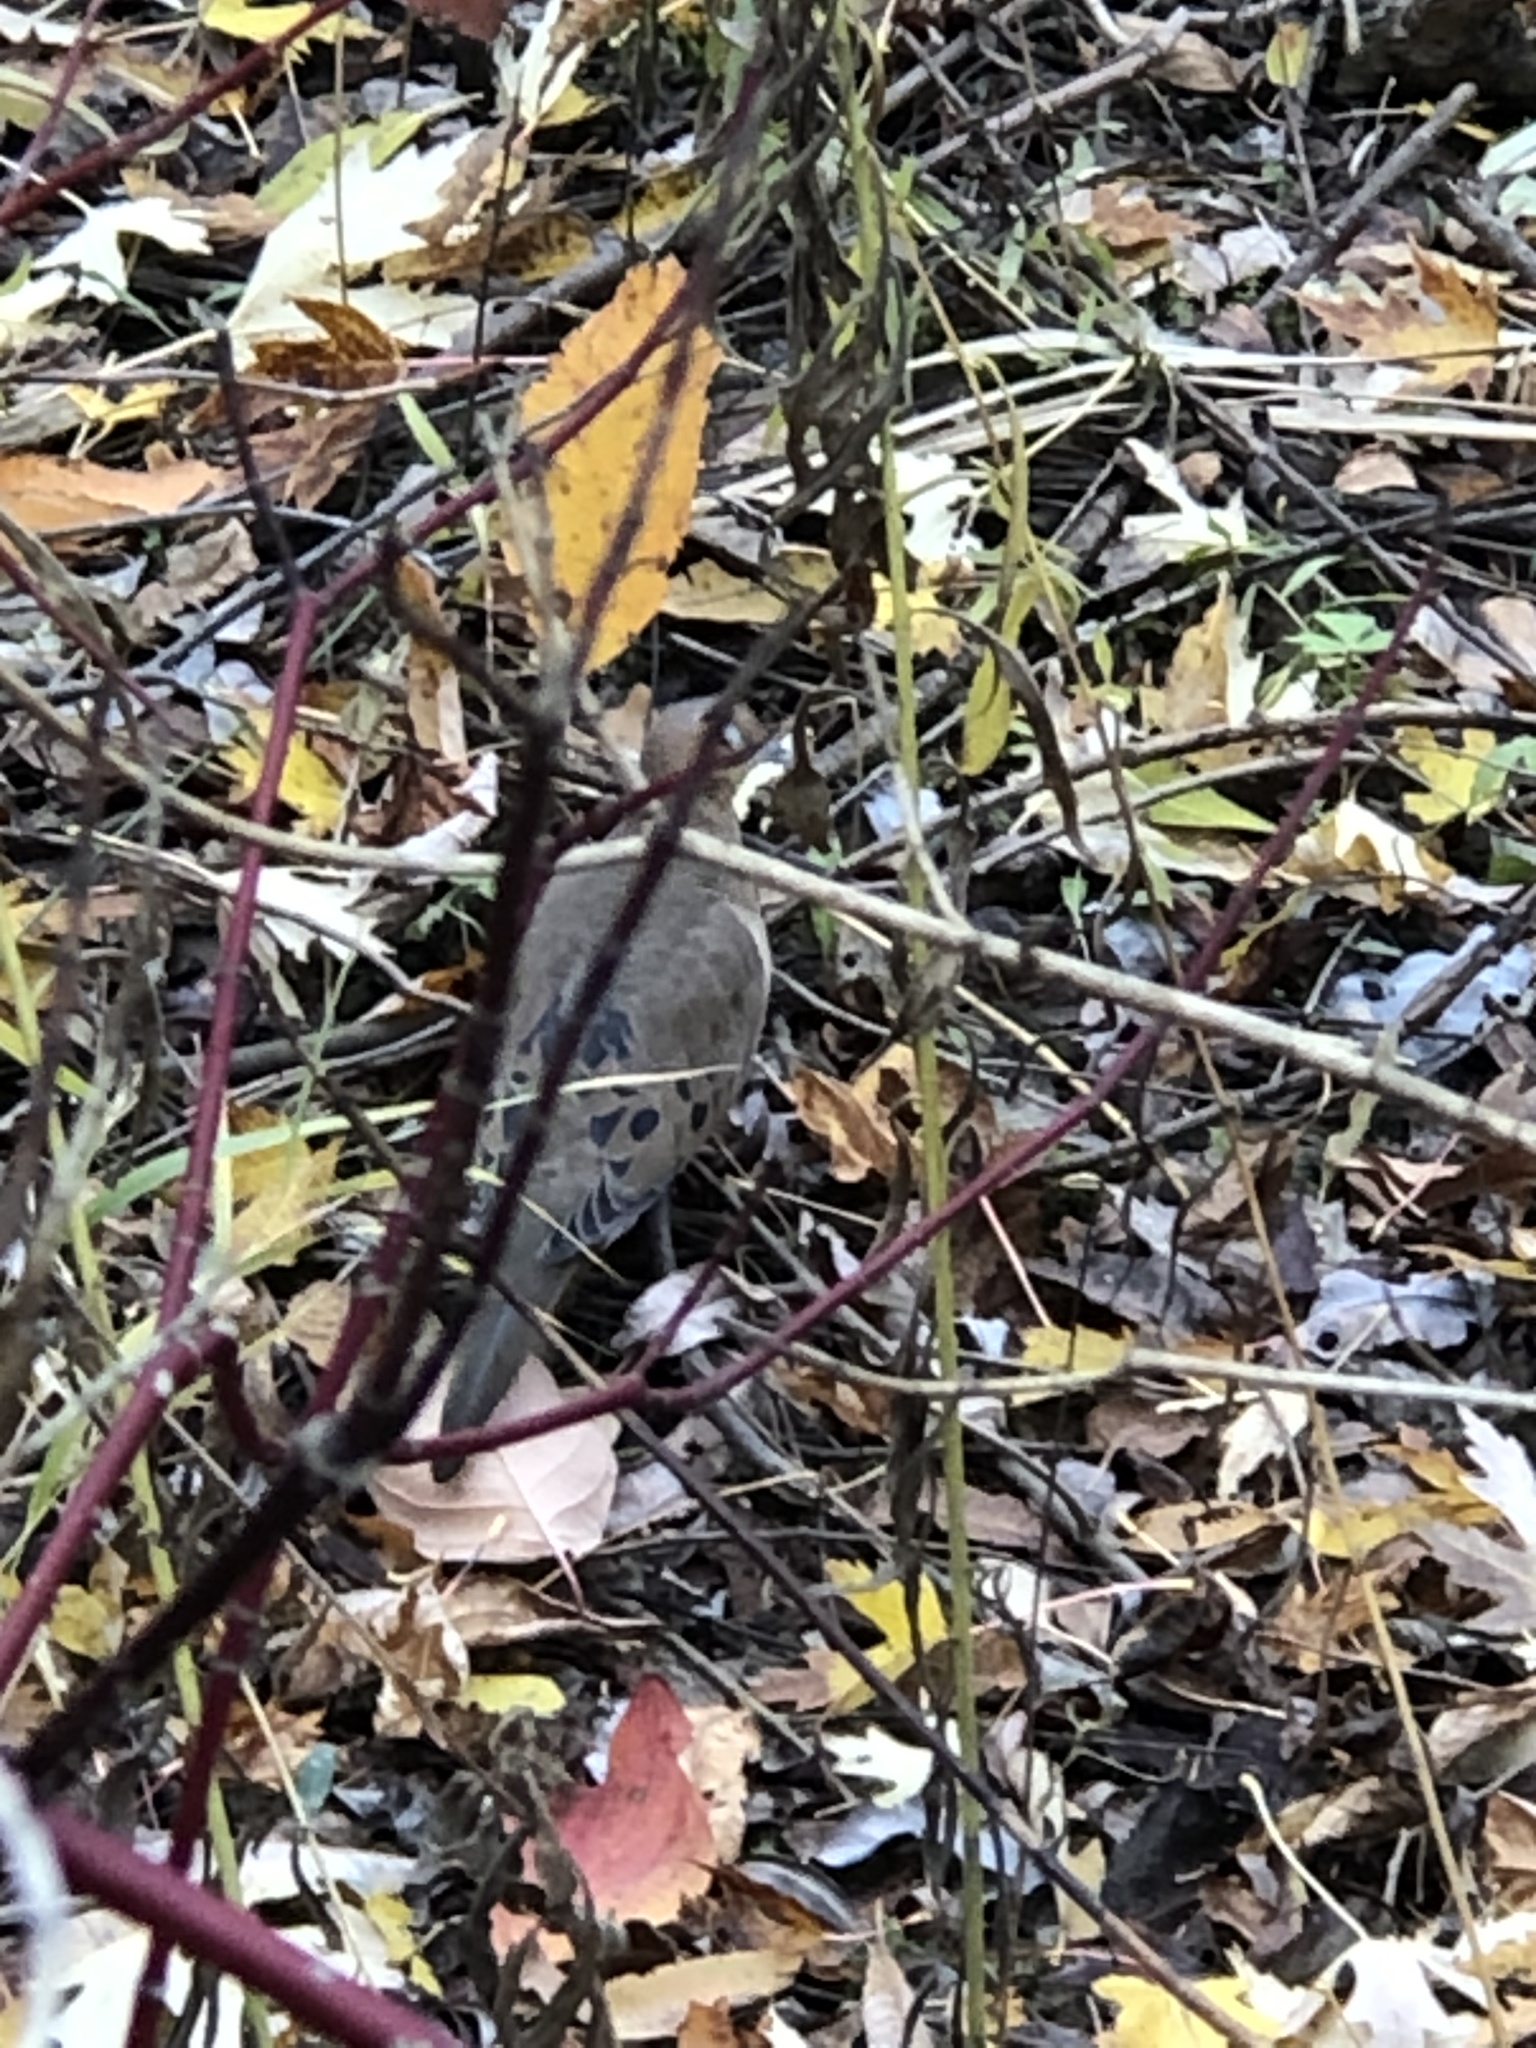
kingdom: Animalia
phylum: Chordata
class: Aves
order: Columbiformes
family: Columbidae
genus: Zenaida
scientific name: Zenaida macroura
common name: Mourning dove
